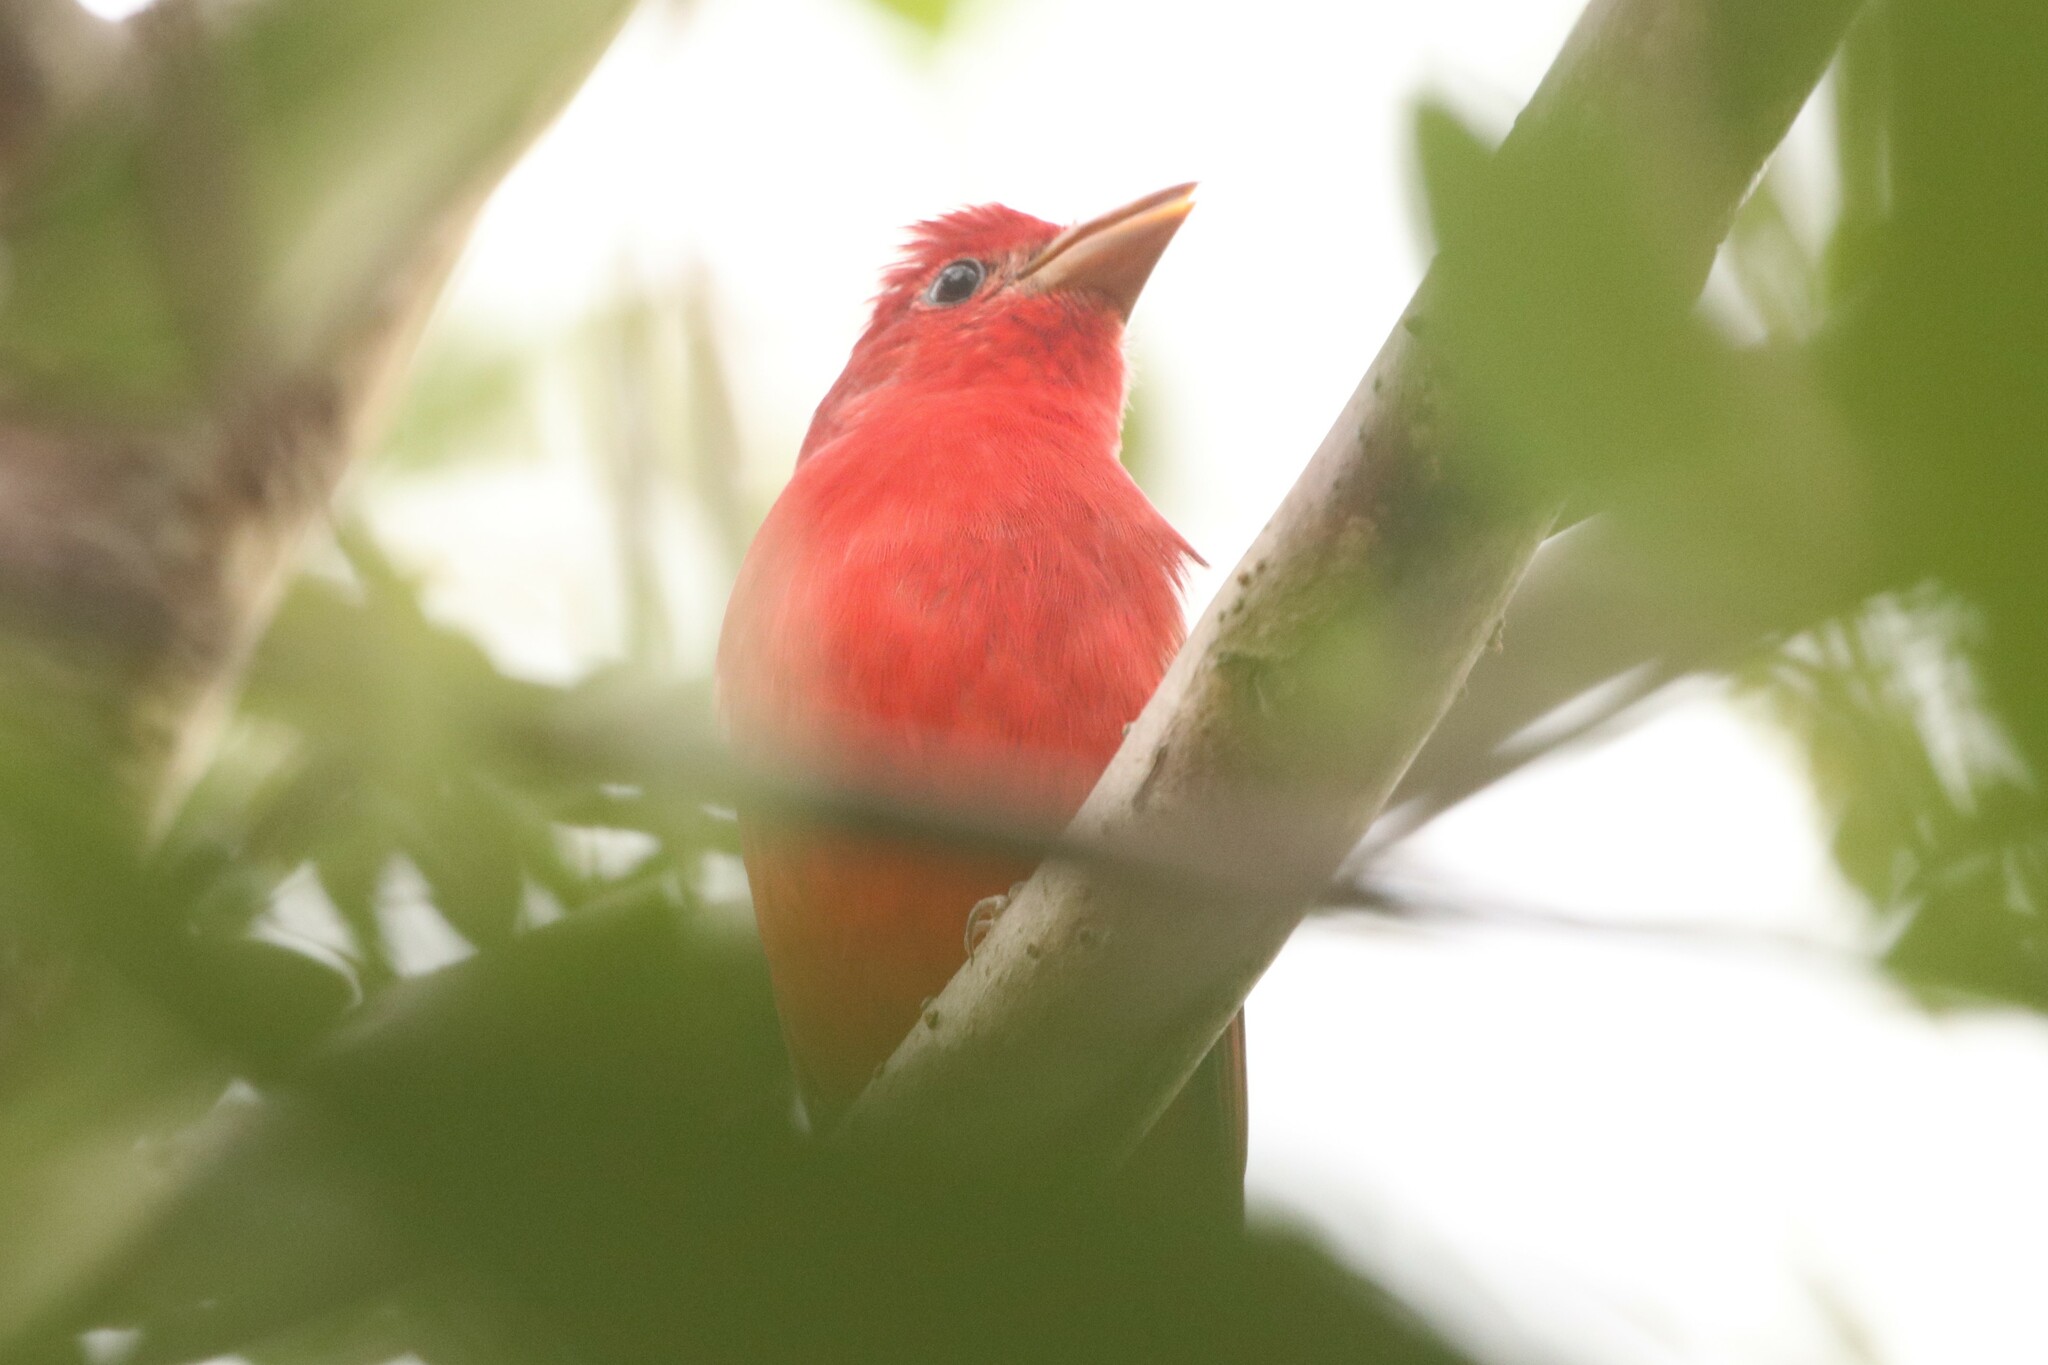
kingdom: Animalia
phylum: Chordata
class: Aves
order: Passeriformes
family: Cardinalidae
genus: Piranga
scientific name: Piranga rubra
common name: Summer tanager
